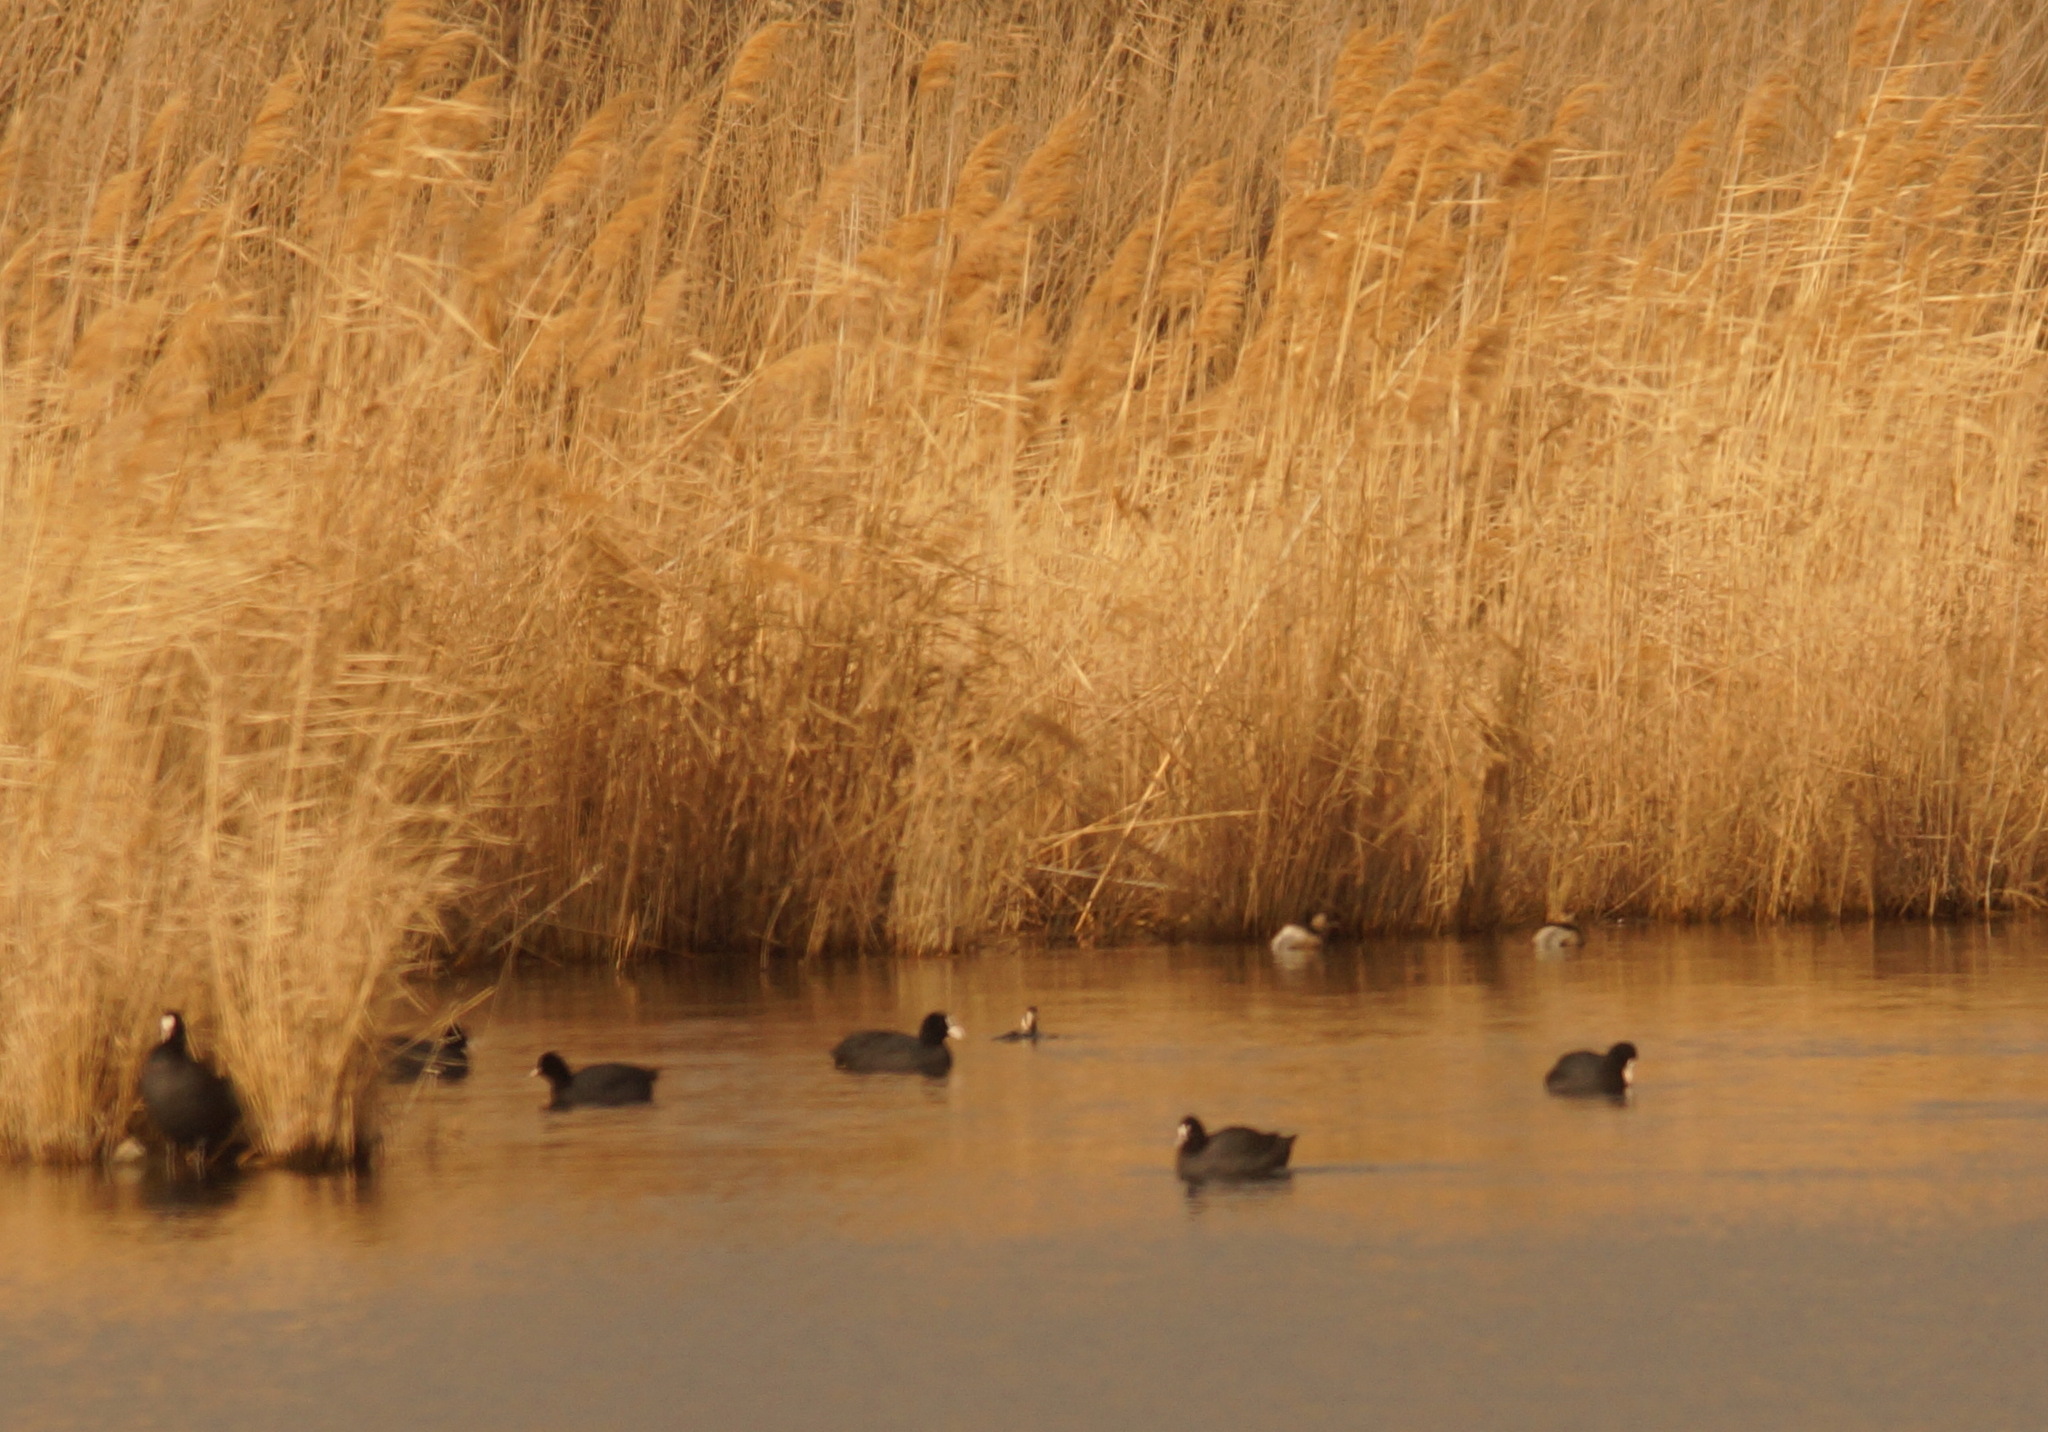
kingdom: Animalia
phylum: Chordata
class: Aves
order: Podicipediformes
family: Podicipedidae
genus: Tachybaptus
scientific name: Tachybaptus ruficollis
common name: Little grebe
